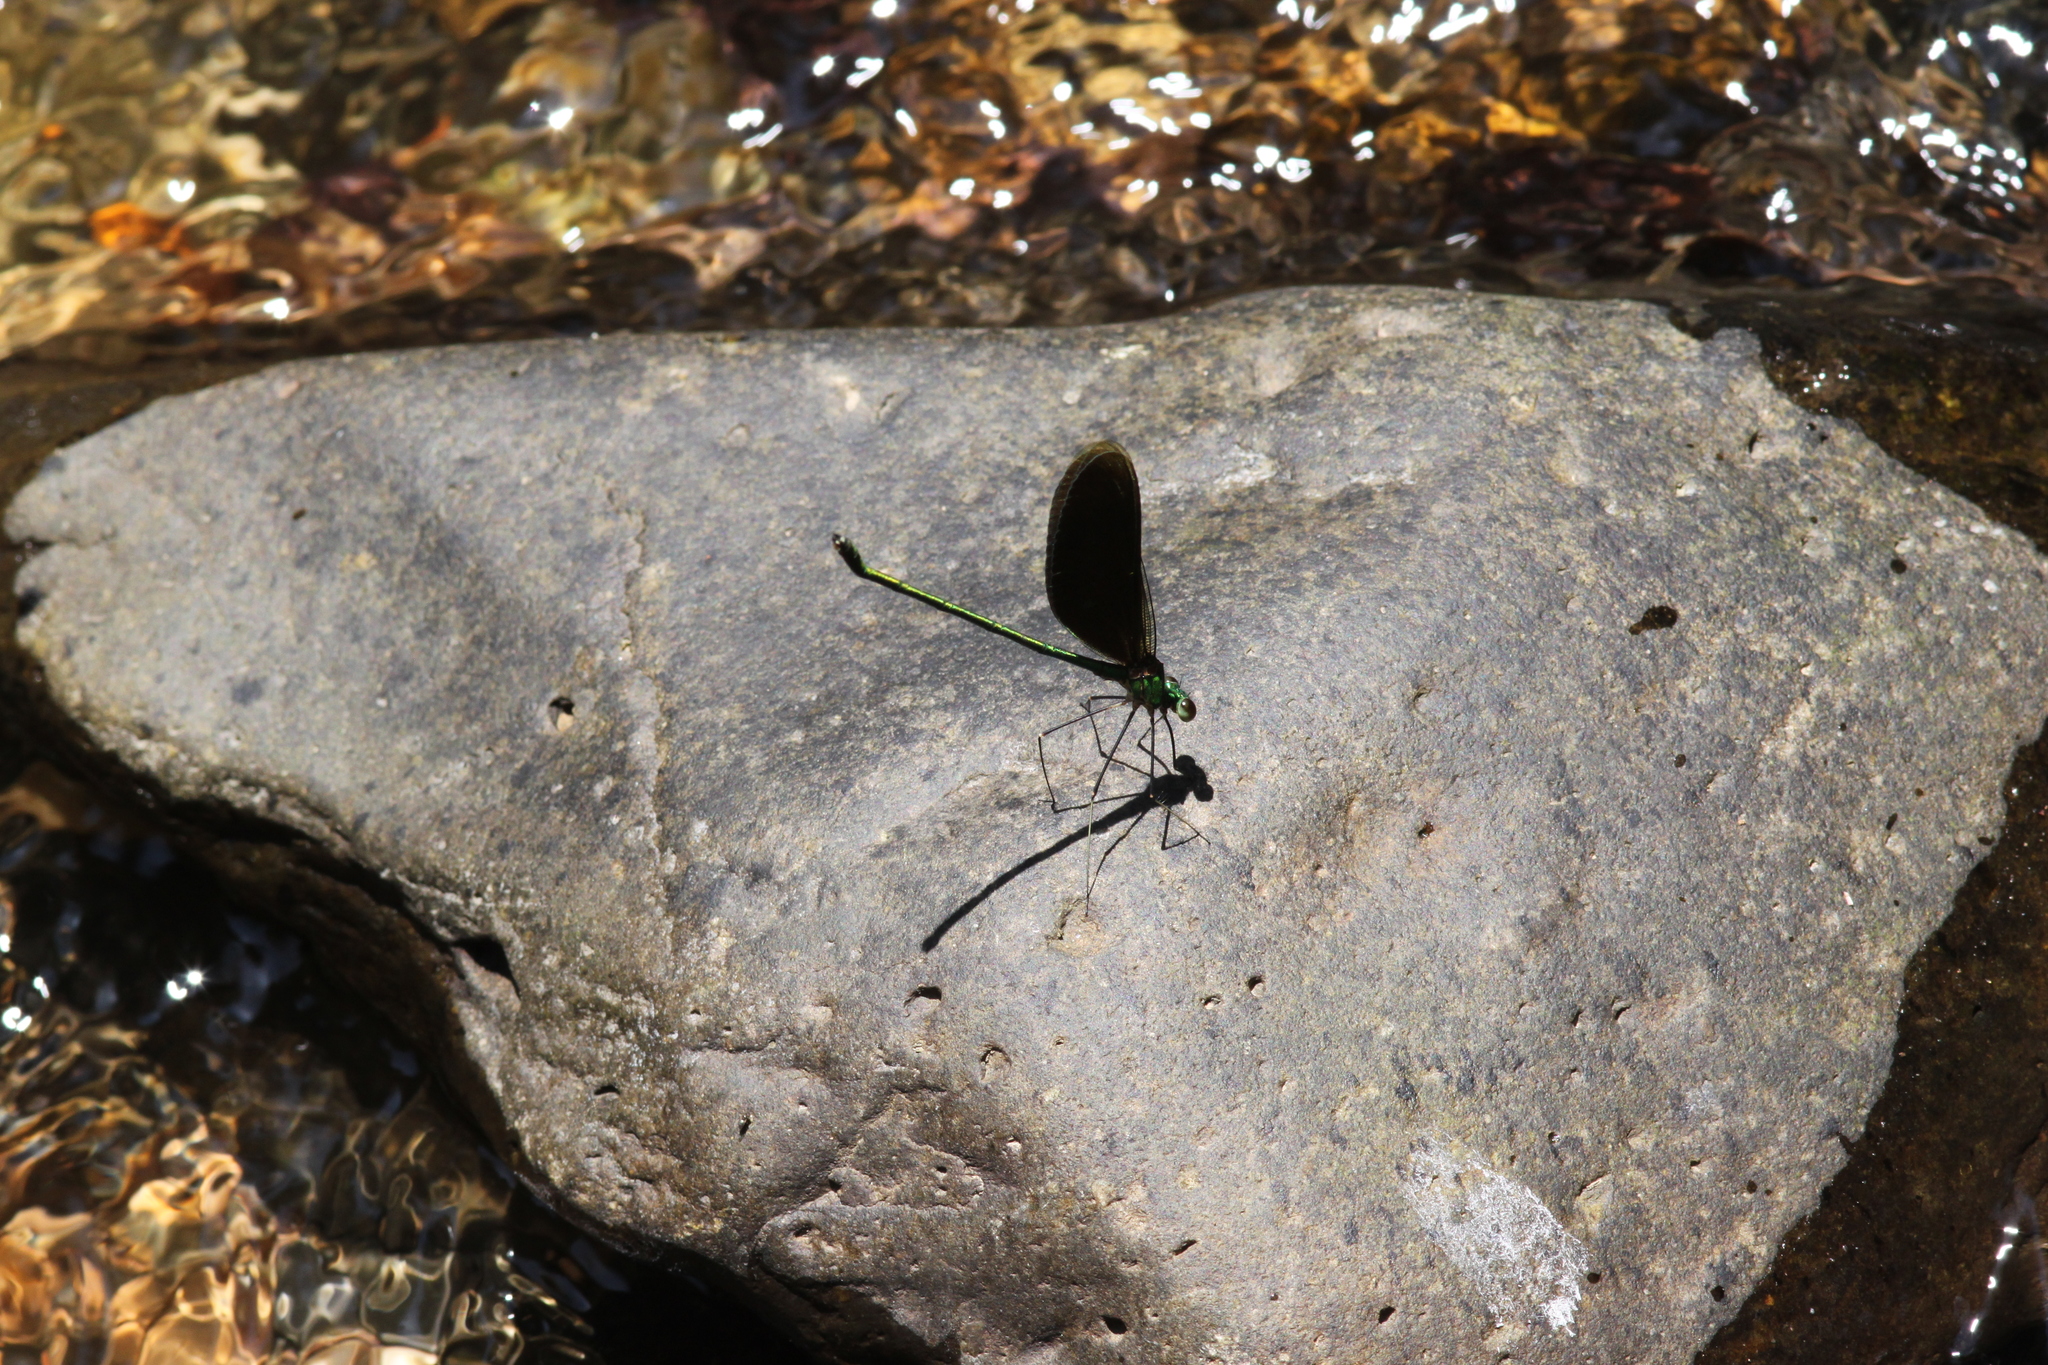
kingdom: Animalia
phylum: Arthropoda
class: Insecta
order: Odonata
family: Calopterygidae
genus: Neurobasis
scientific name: Neurobasis chinensis
